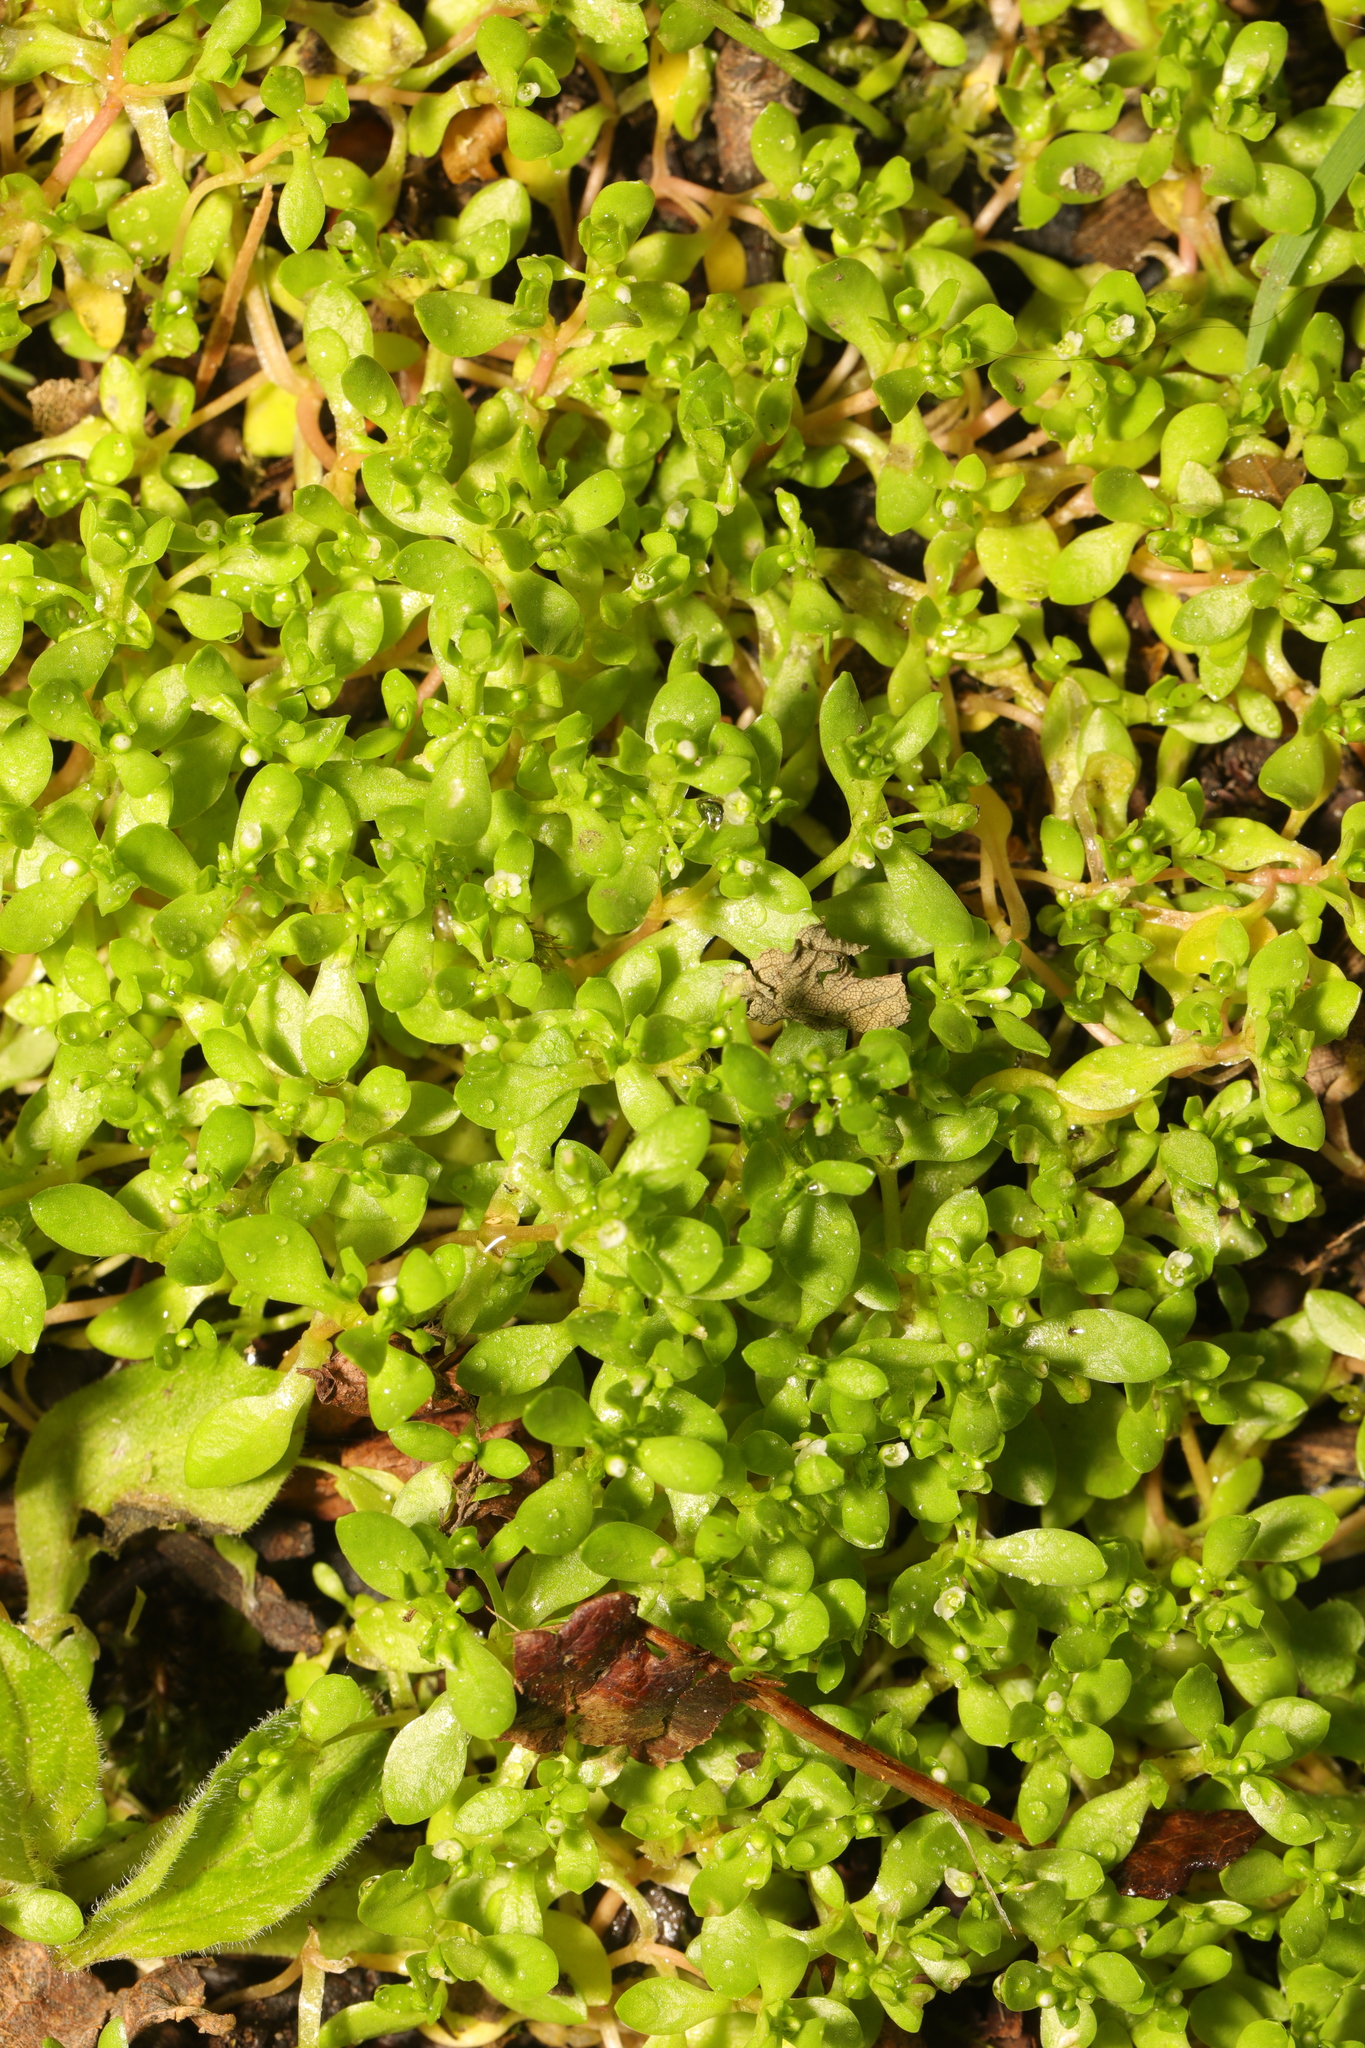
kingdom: Plantae
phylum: Tracheophyta
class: Magnoliopsida
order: Caryophyllales
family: Montiaceae
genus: Montia
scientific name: Montia fontana
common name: Blinks
